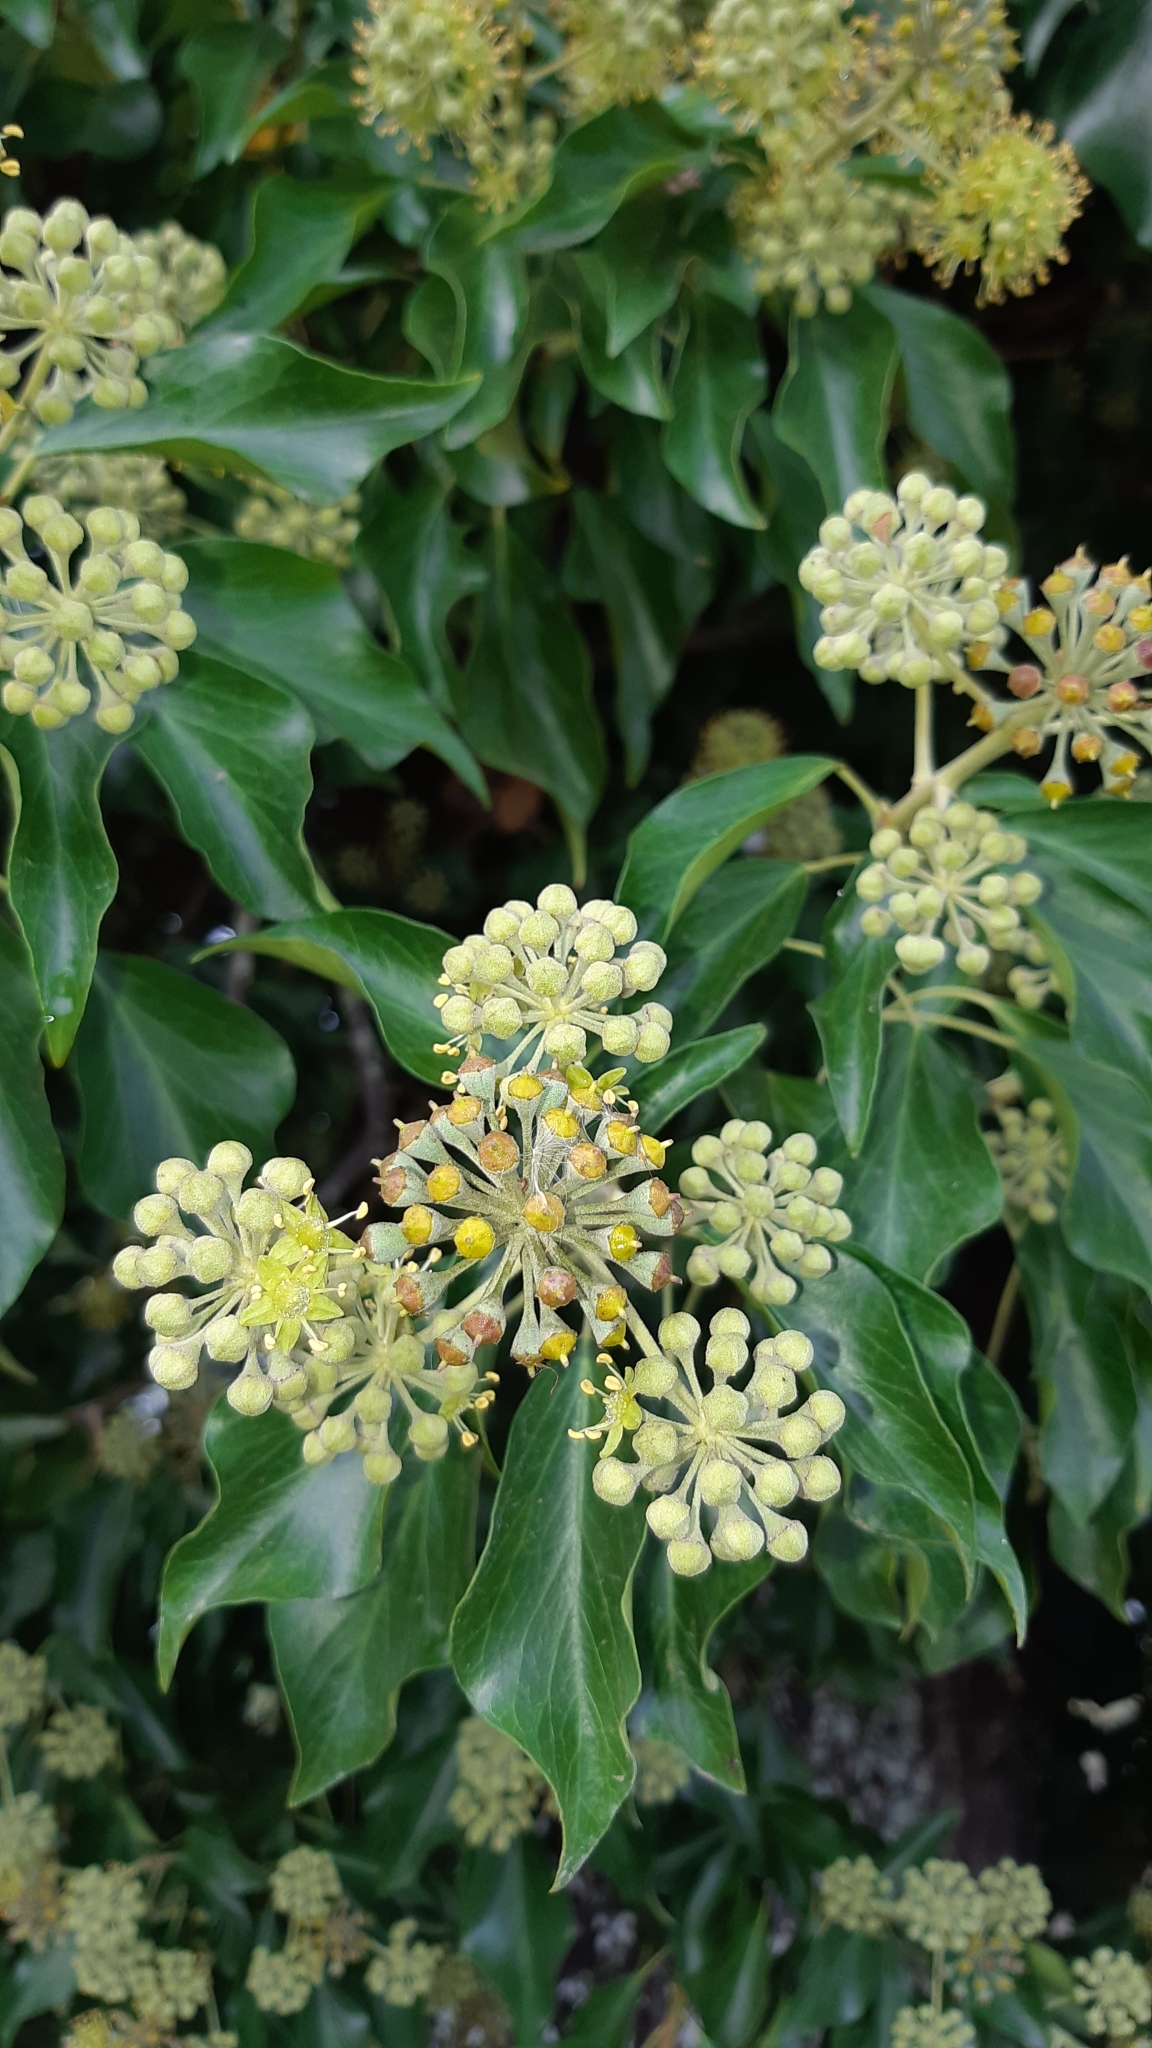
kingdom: Plantae
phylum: Tracheophyta
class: Magnoliopsida
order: Apiales
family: Araliaceae
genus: Hedera
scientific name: Hedera helix
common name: Ivy
